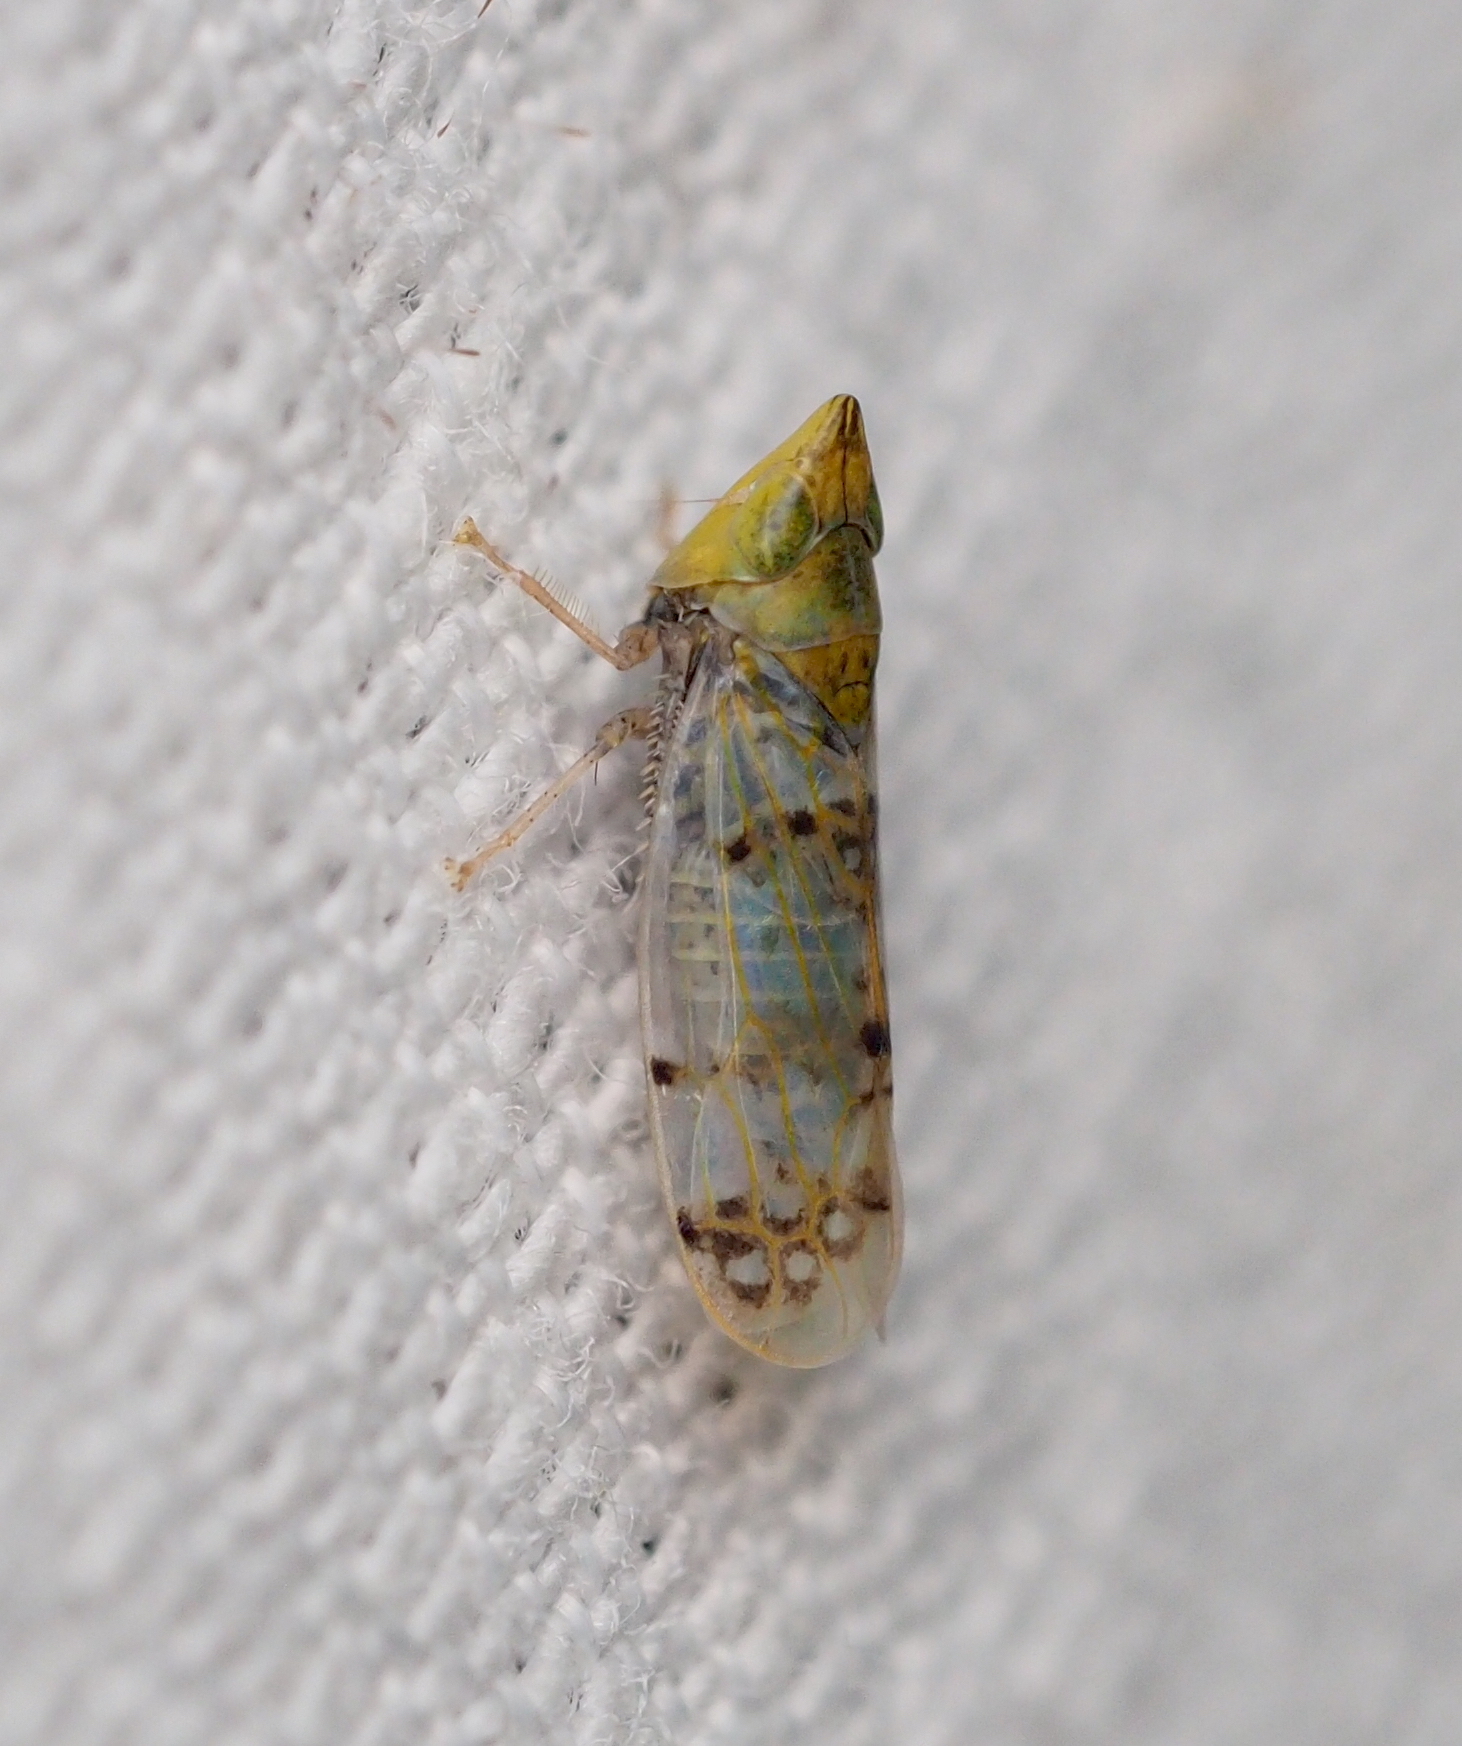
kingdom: Animalia
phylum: Arthropoda
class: Insecta
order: Hemiptera
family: Cicadellidae
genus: Japananus
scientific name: Japananus hyalinus
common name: The japanese maple leafhopper
